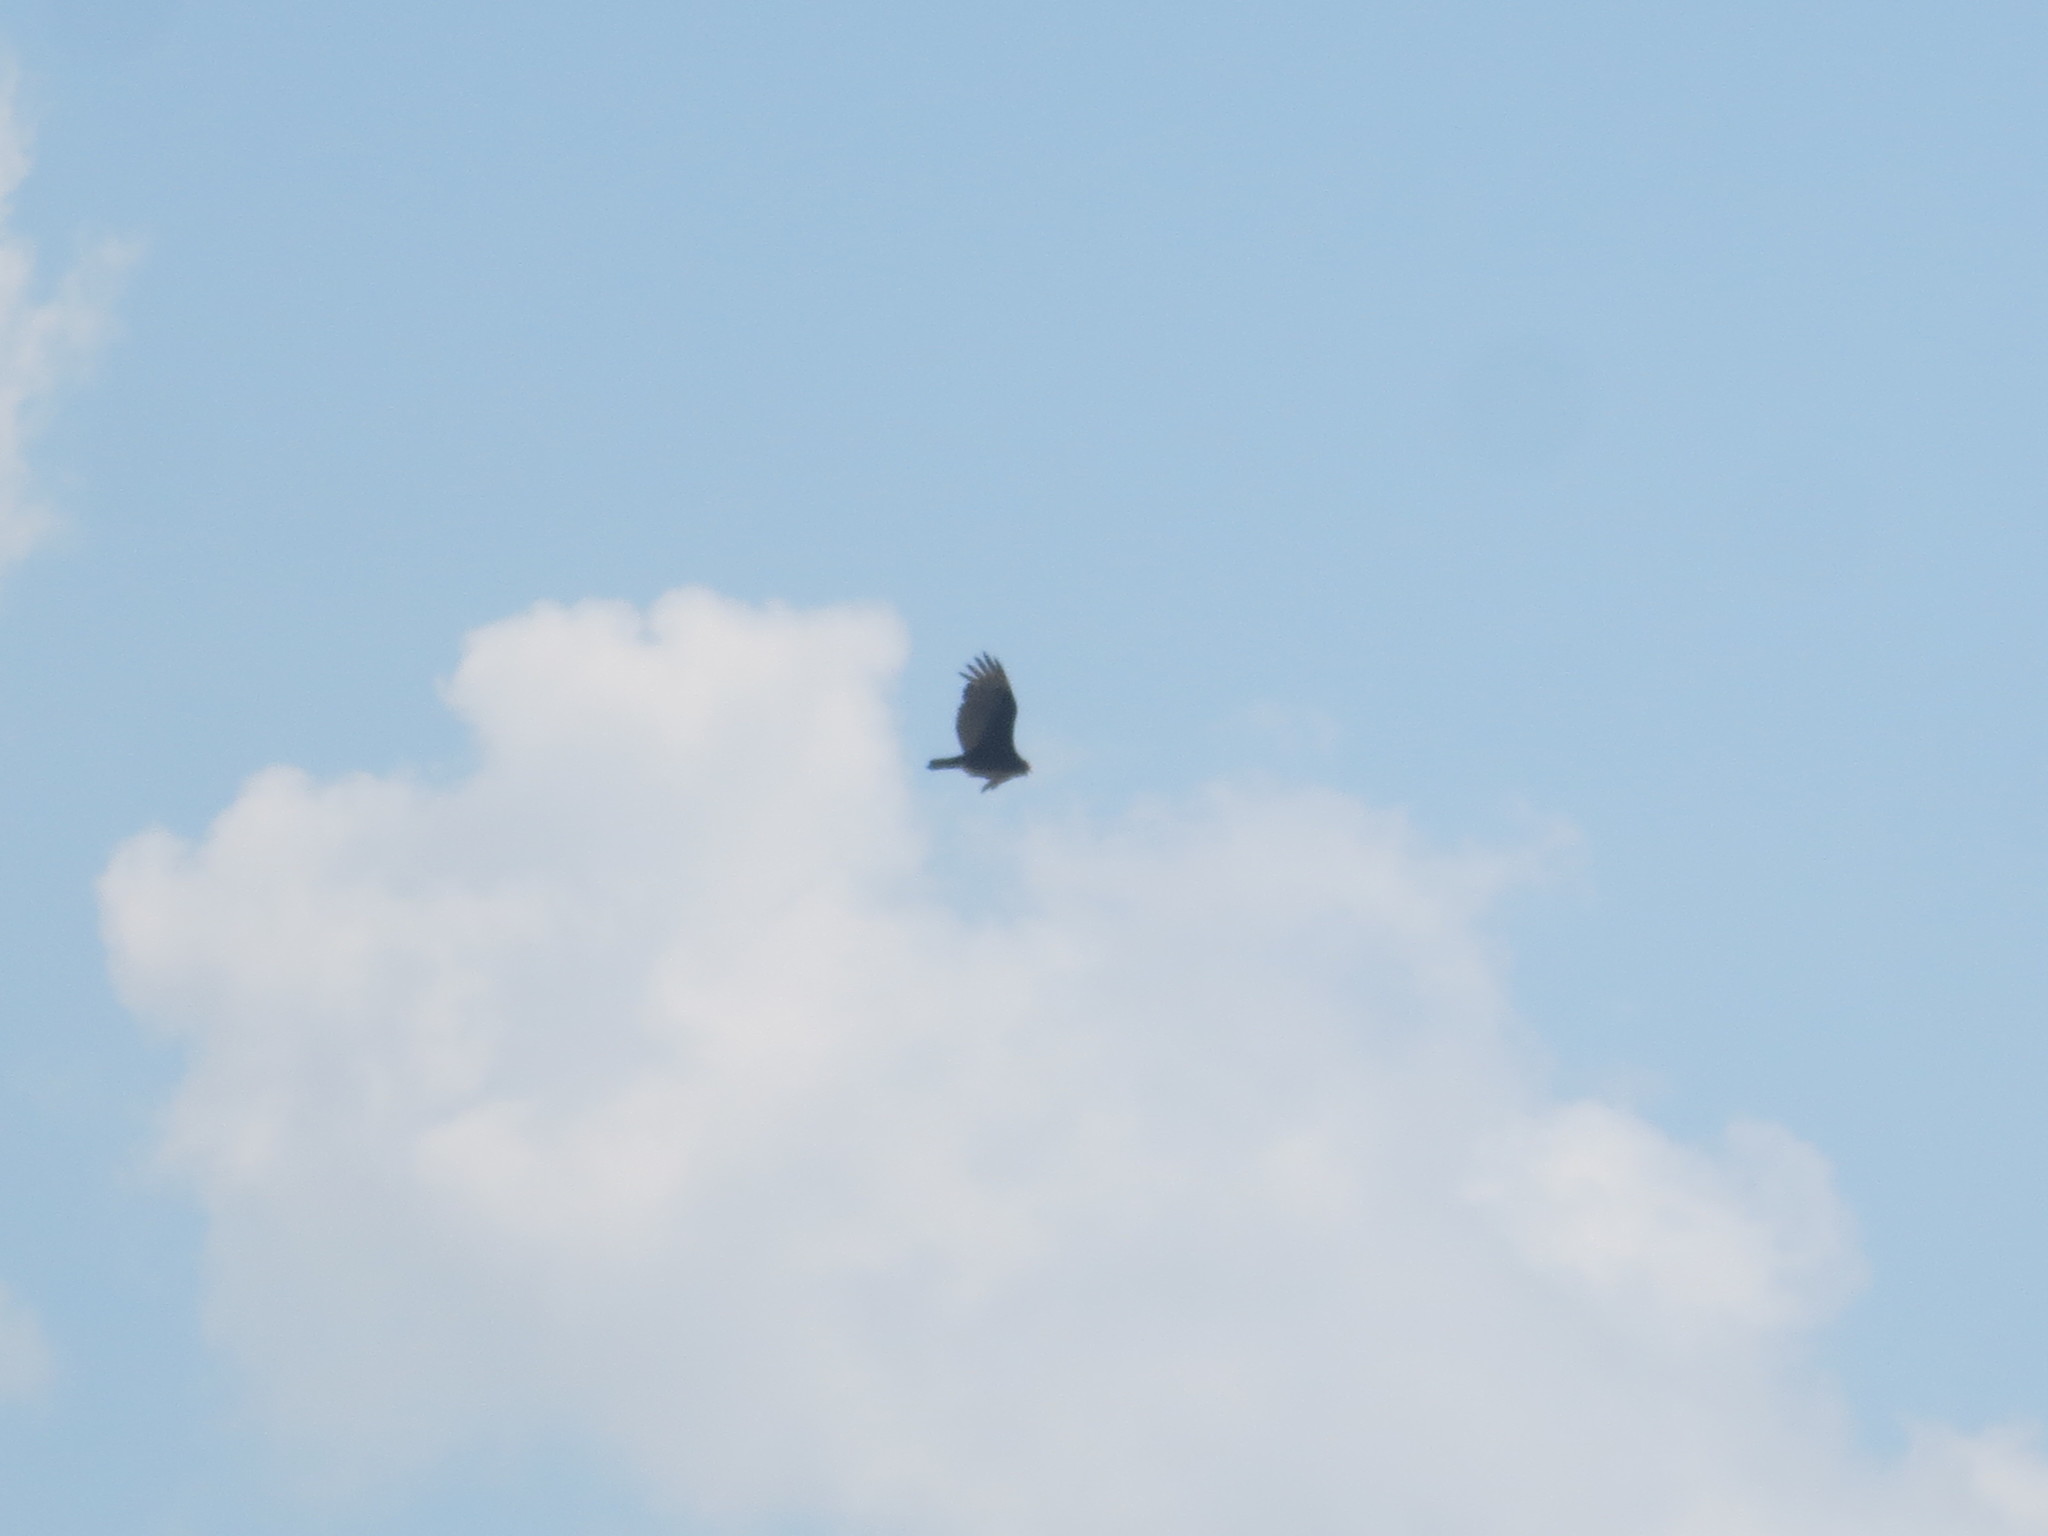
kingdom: Animalia
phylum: Chordata
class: Aves
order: Accipitriformes
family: Cathartidae
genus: Cathartes
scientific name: Cathartes aura
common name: Turkey vulture
